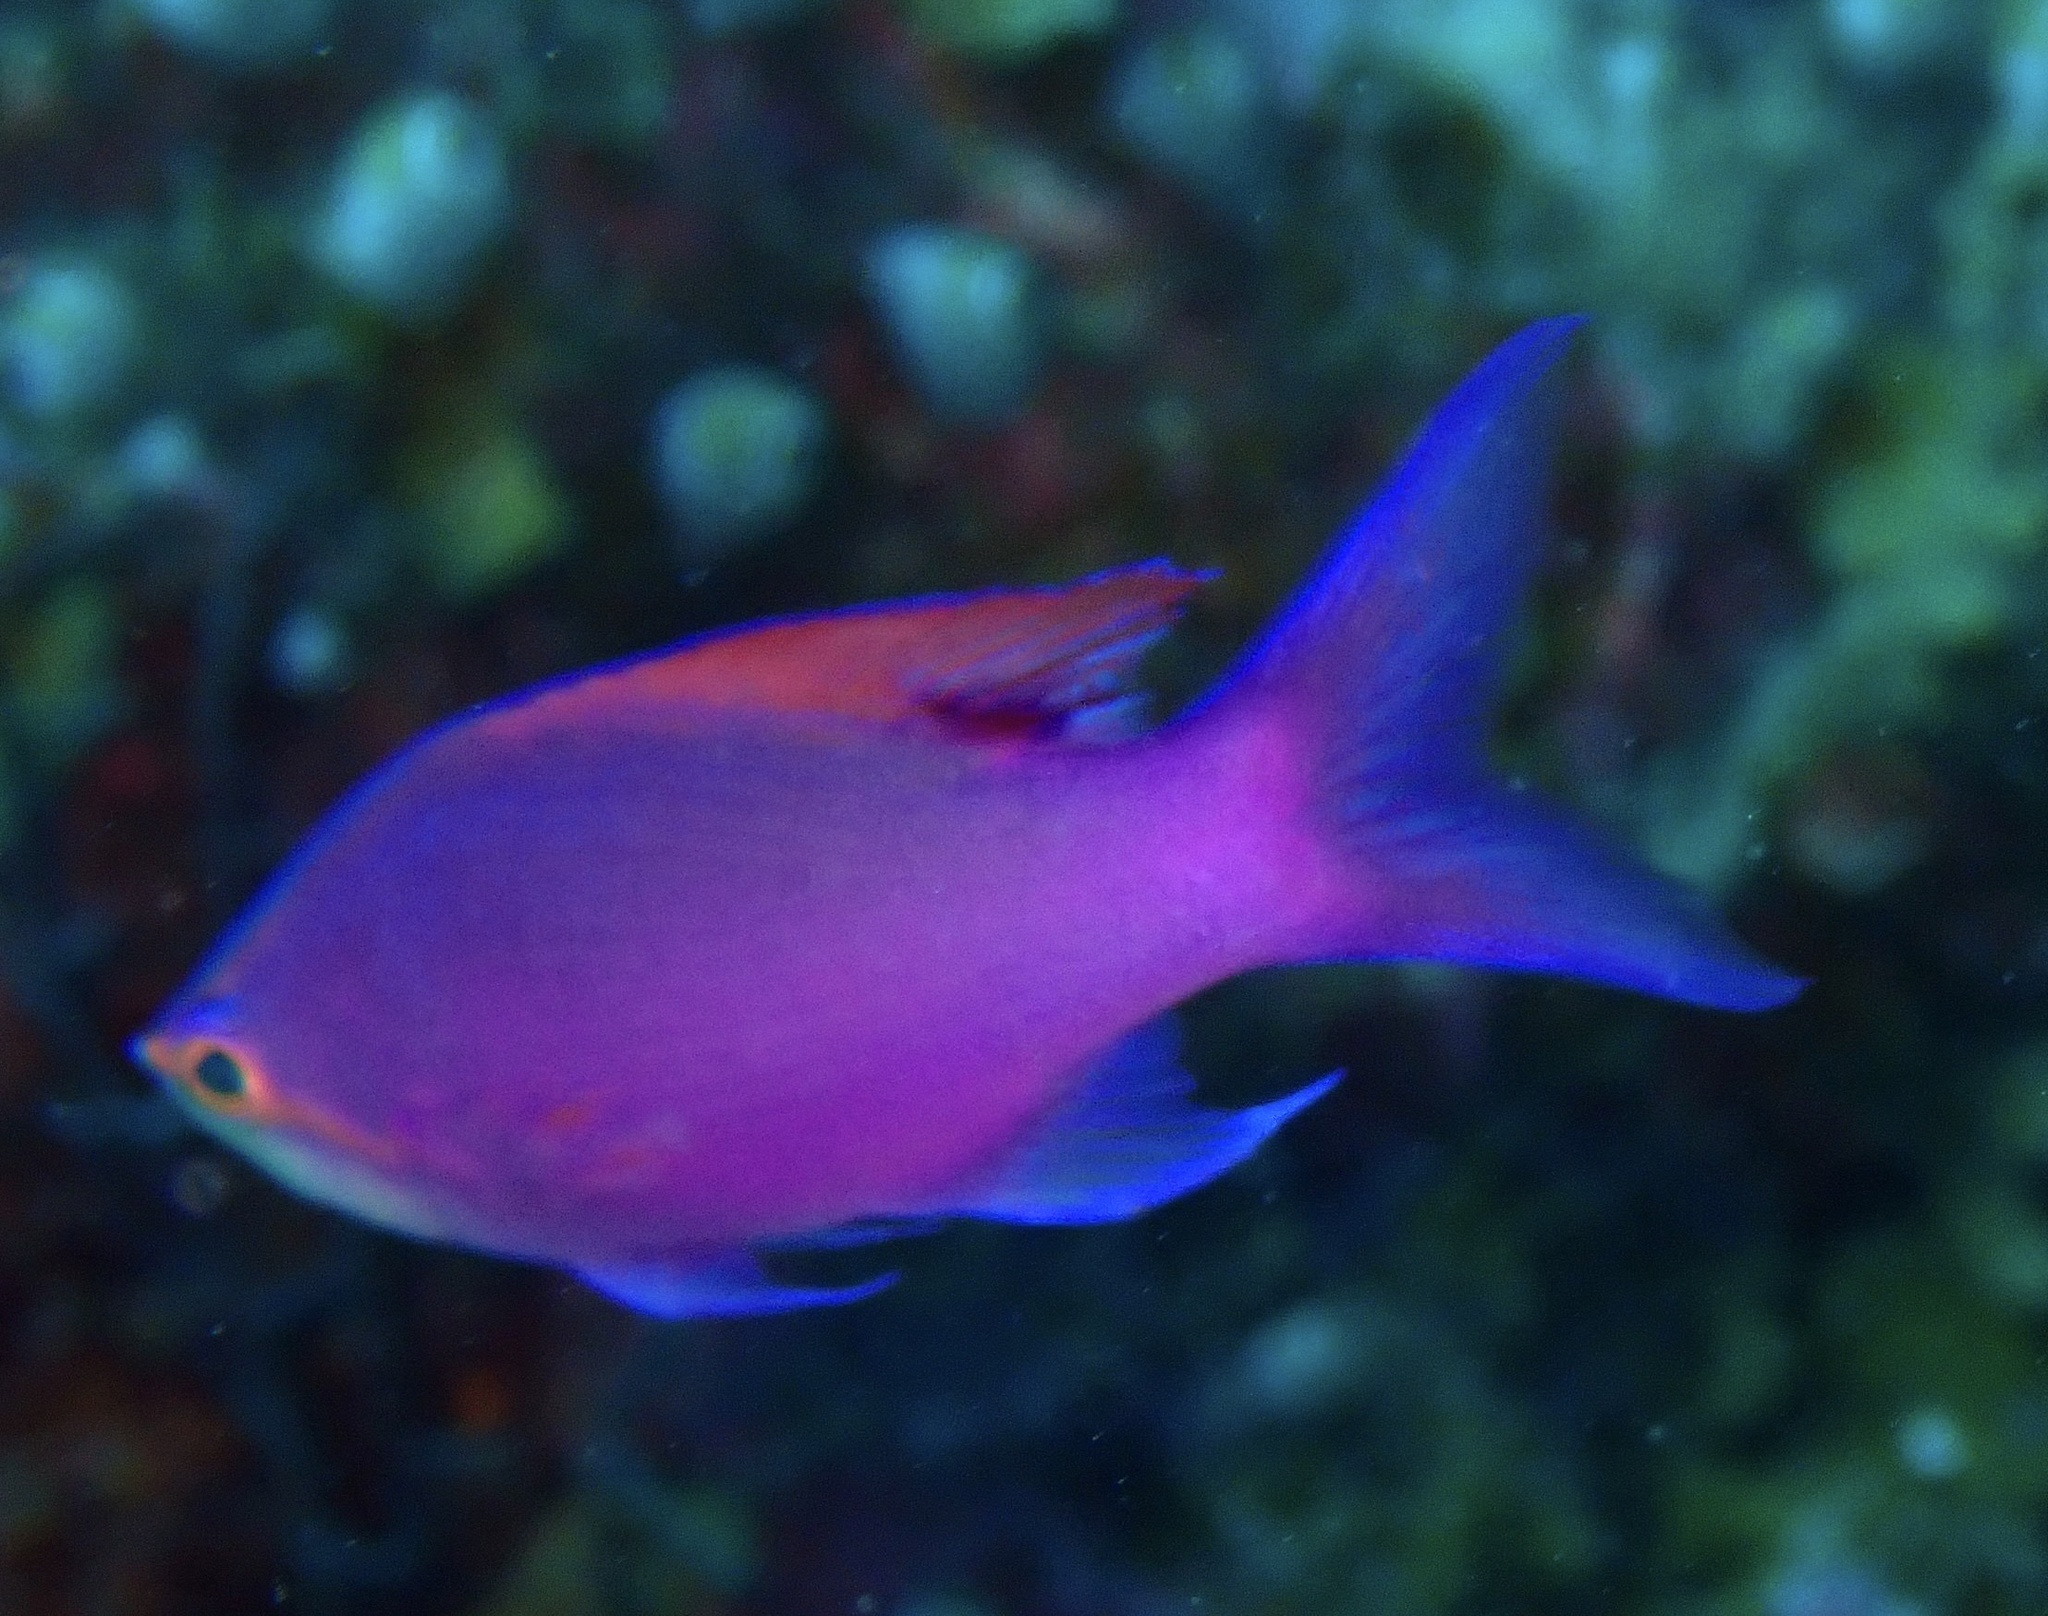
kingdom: Animalia
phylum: Chordata
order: Perciformes
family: Serranidae
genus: Pseudanthias
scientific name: Pseudanthias tuka
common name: Purple queen
